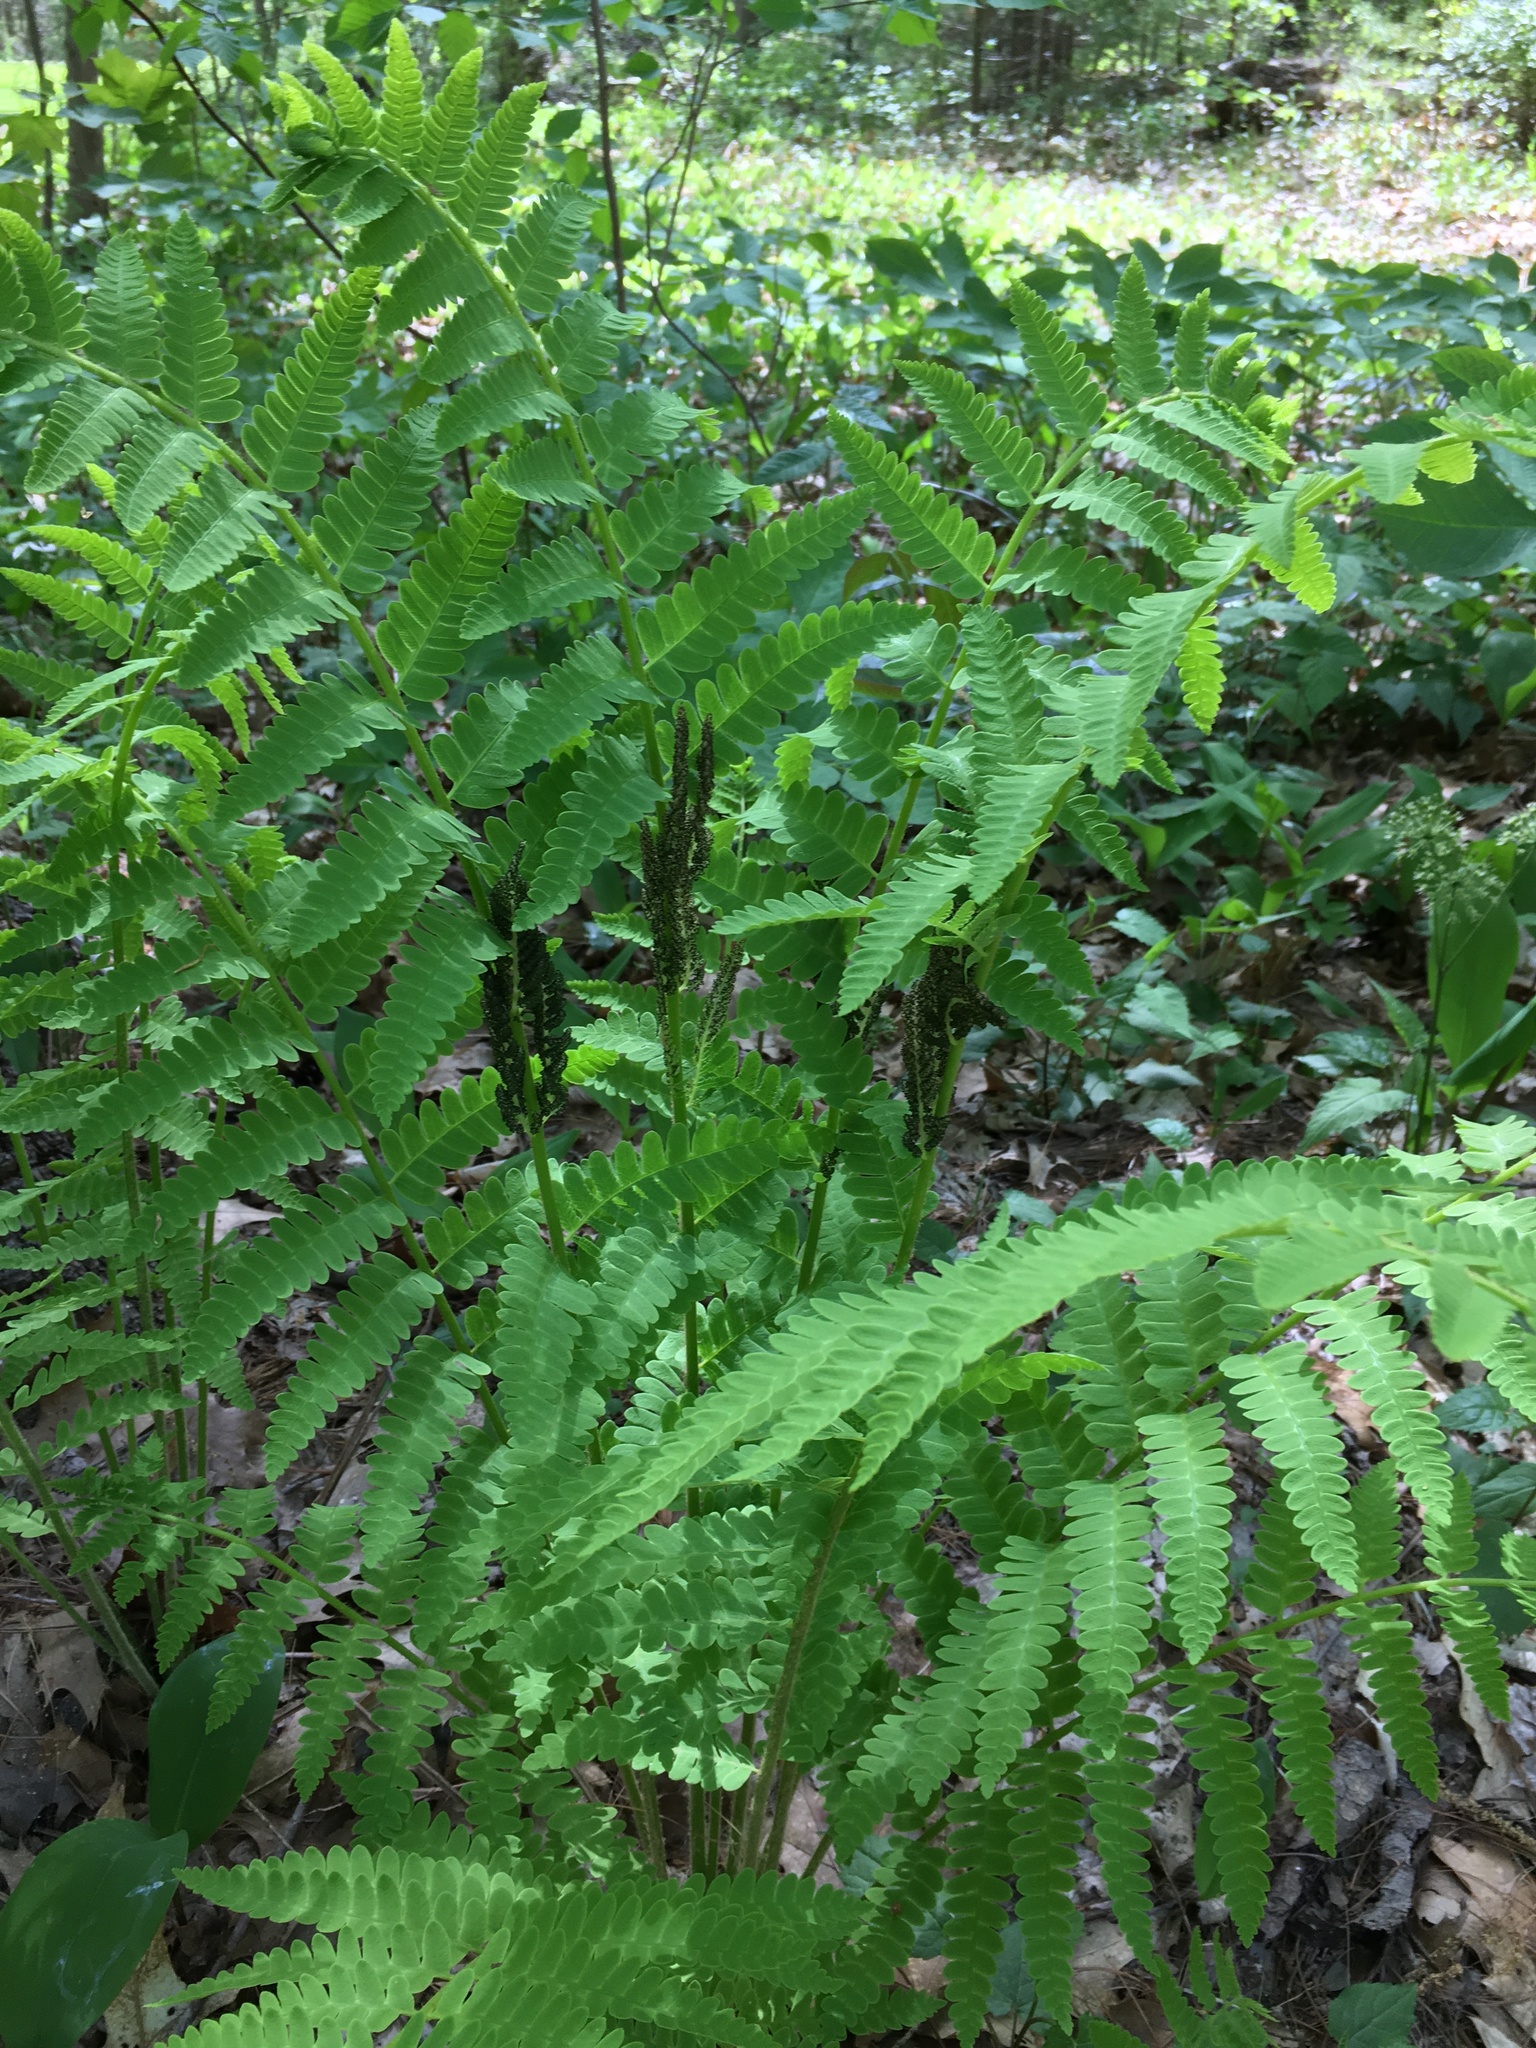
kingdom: Plantae
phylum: Tracheophyta
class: Polypodiopsida
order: Osmundales
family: Osmundaceae
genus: Claytosmunda
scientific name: Claytosmunda claytoniana
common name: Clayton's fern
